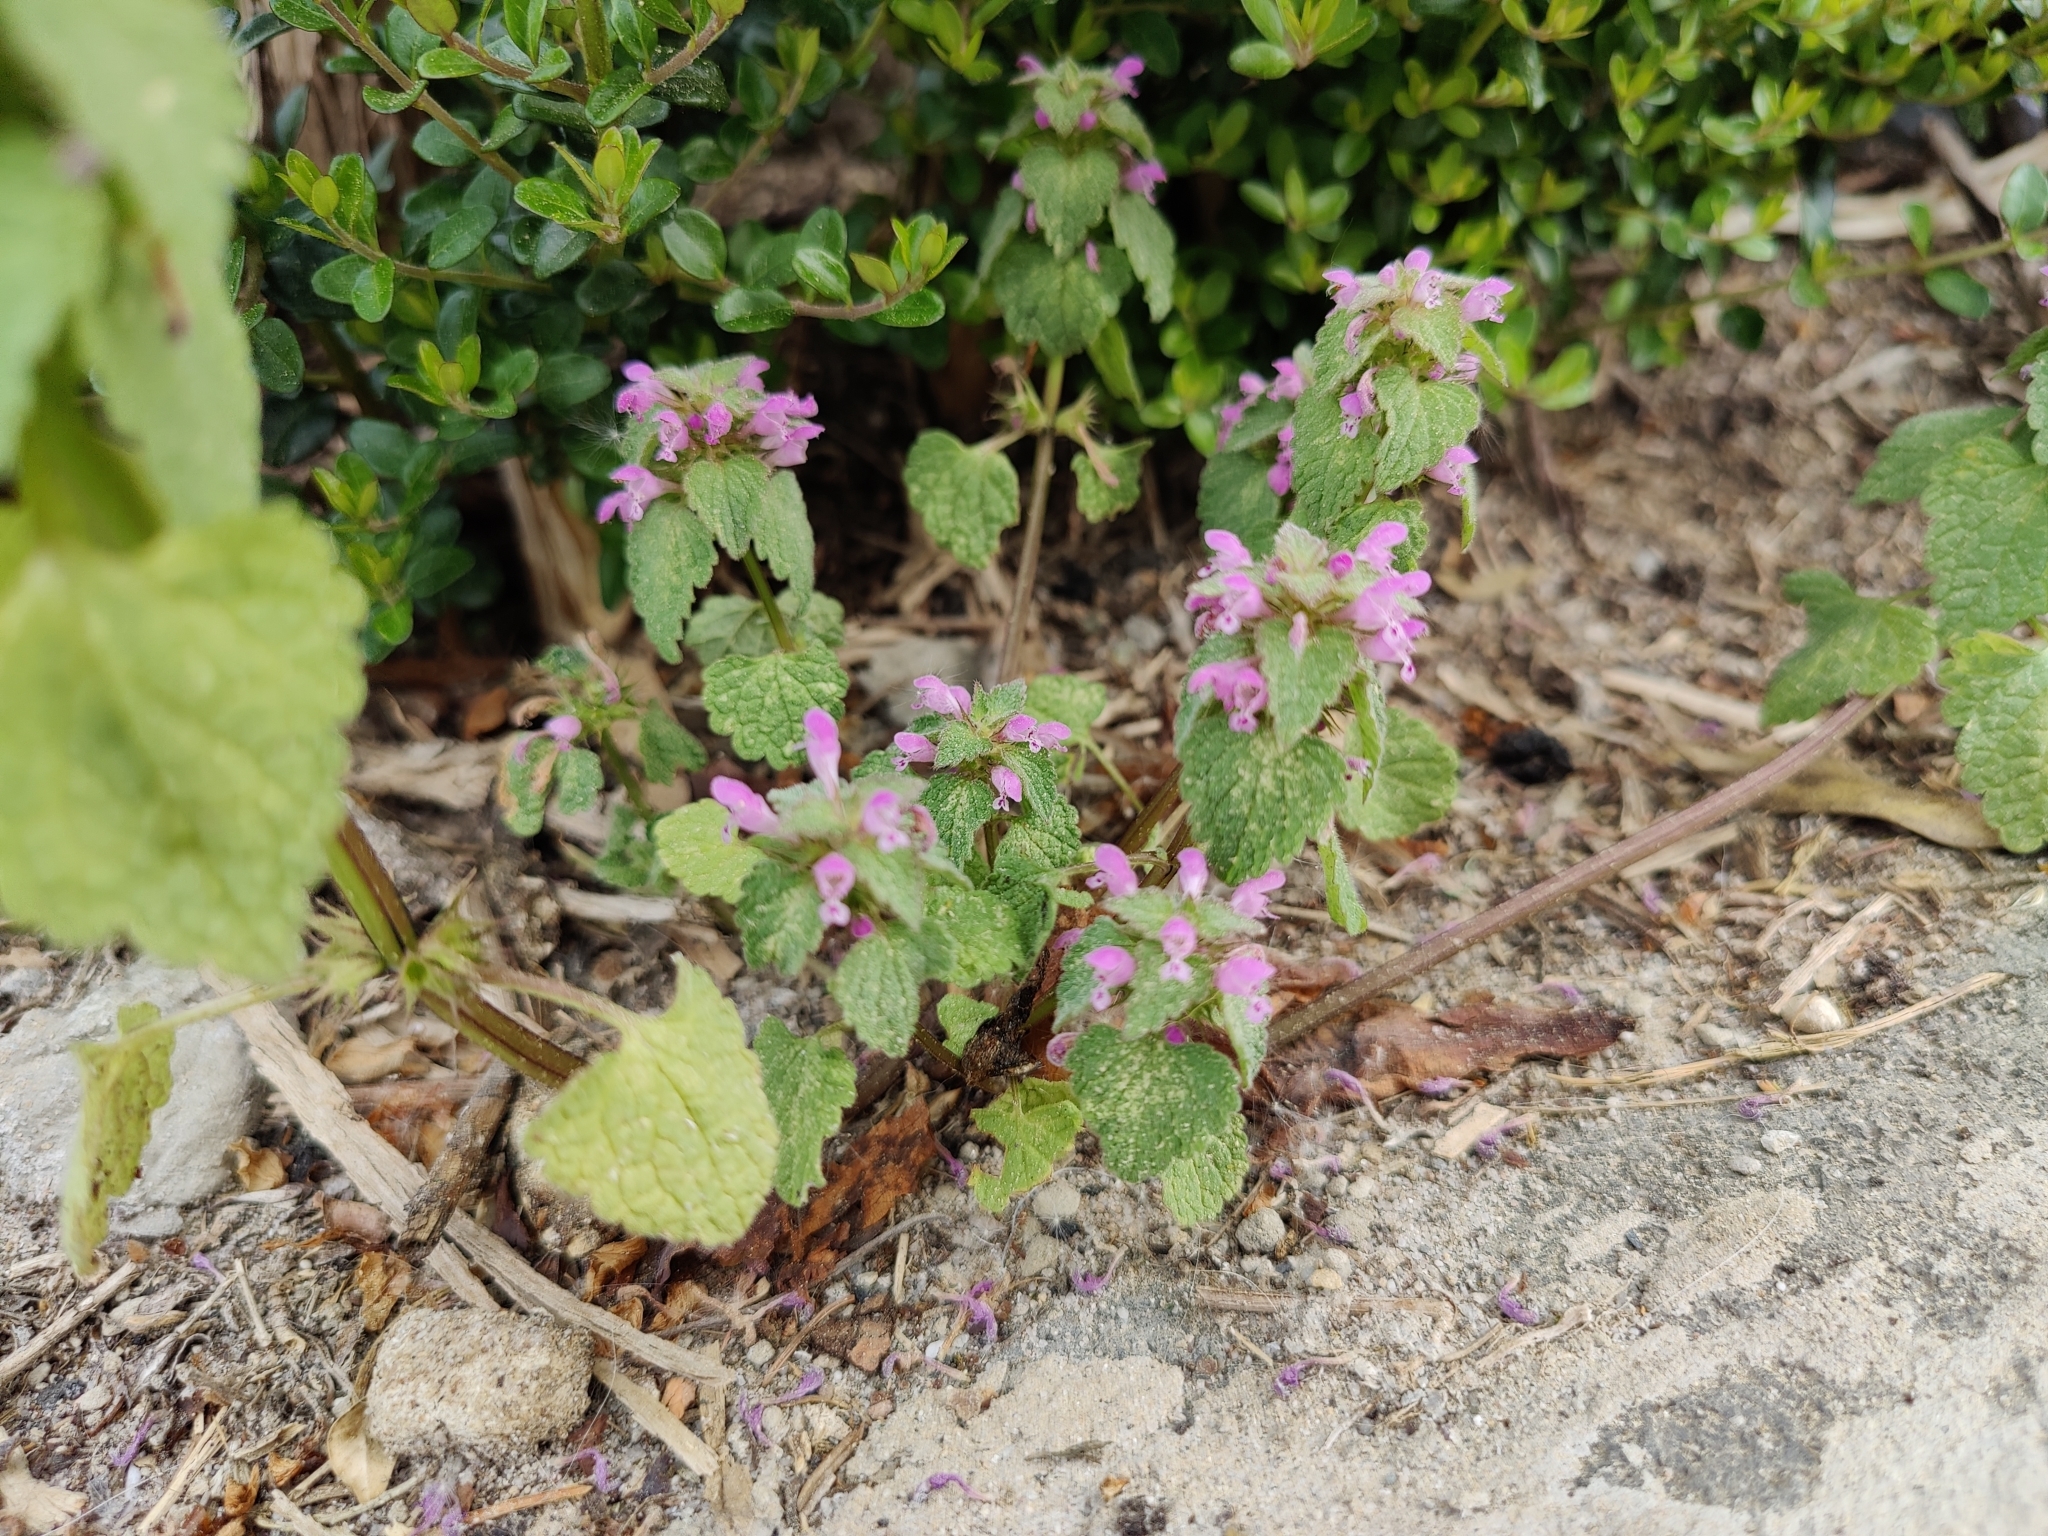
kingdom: Plantae
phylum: Tracheophyta
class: Magnoliopsida
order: Lamiales
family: Lamiaceae
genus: Lamium
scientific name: Lamium purpureum
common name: Red dead-nettle
